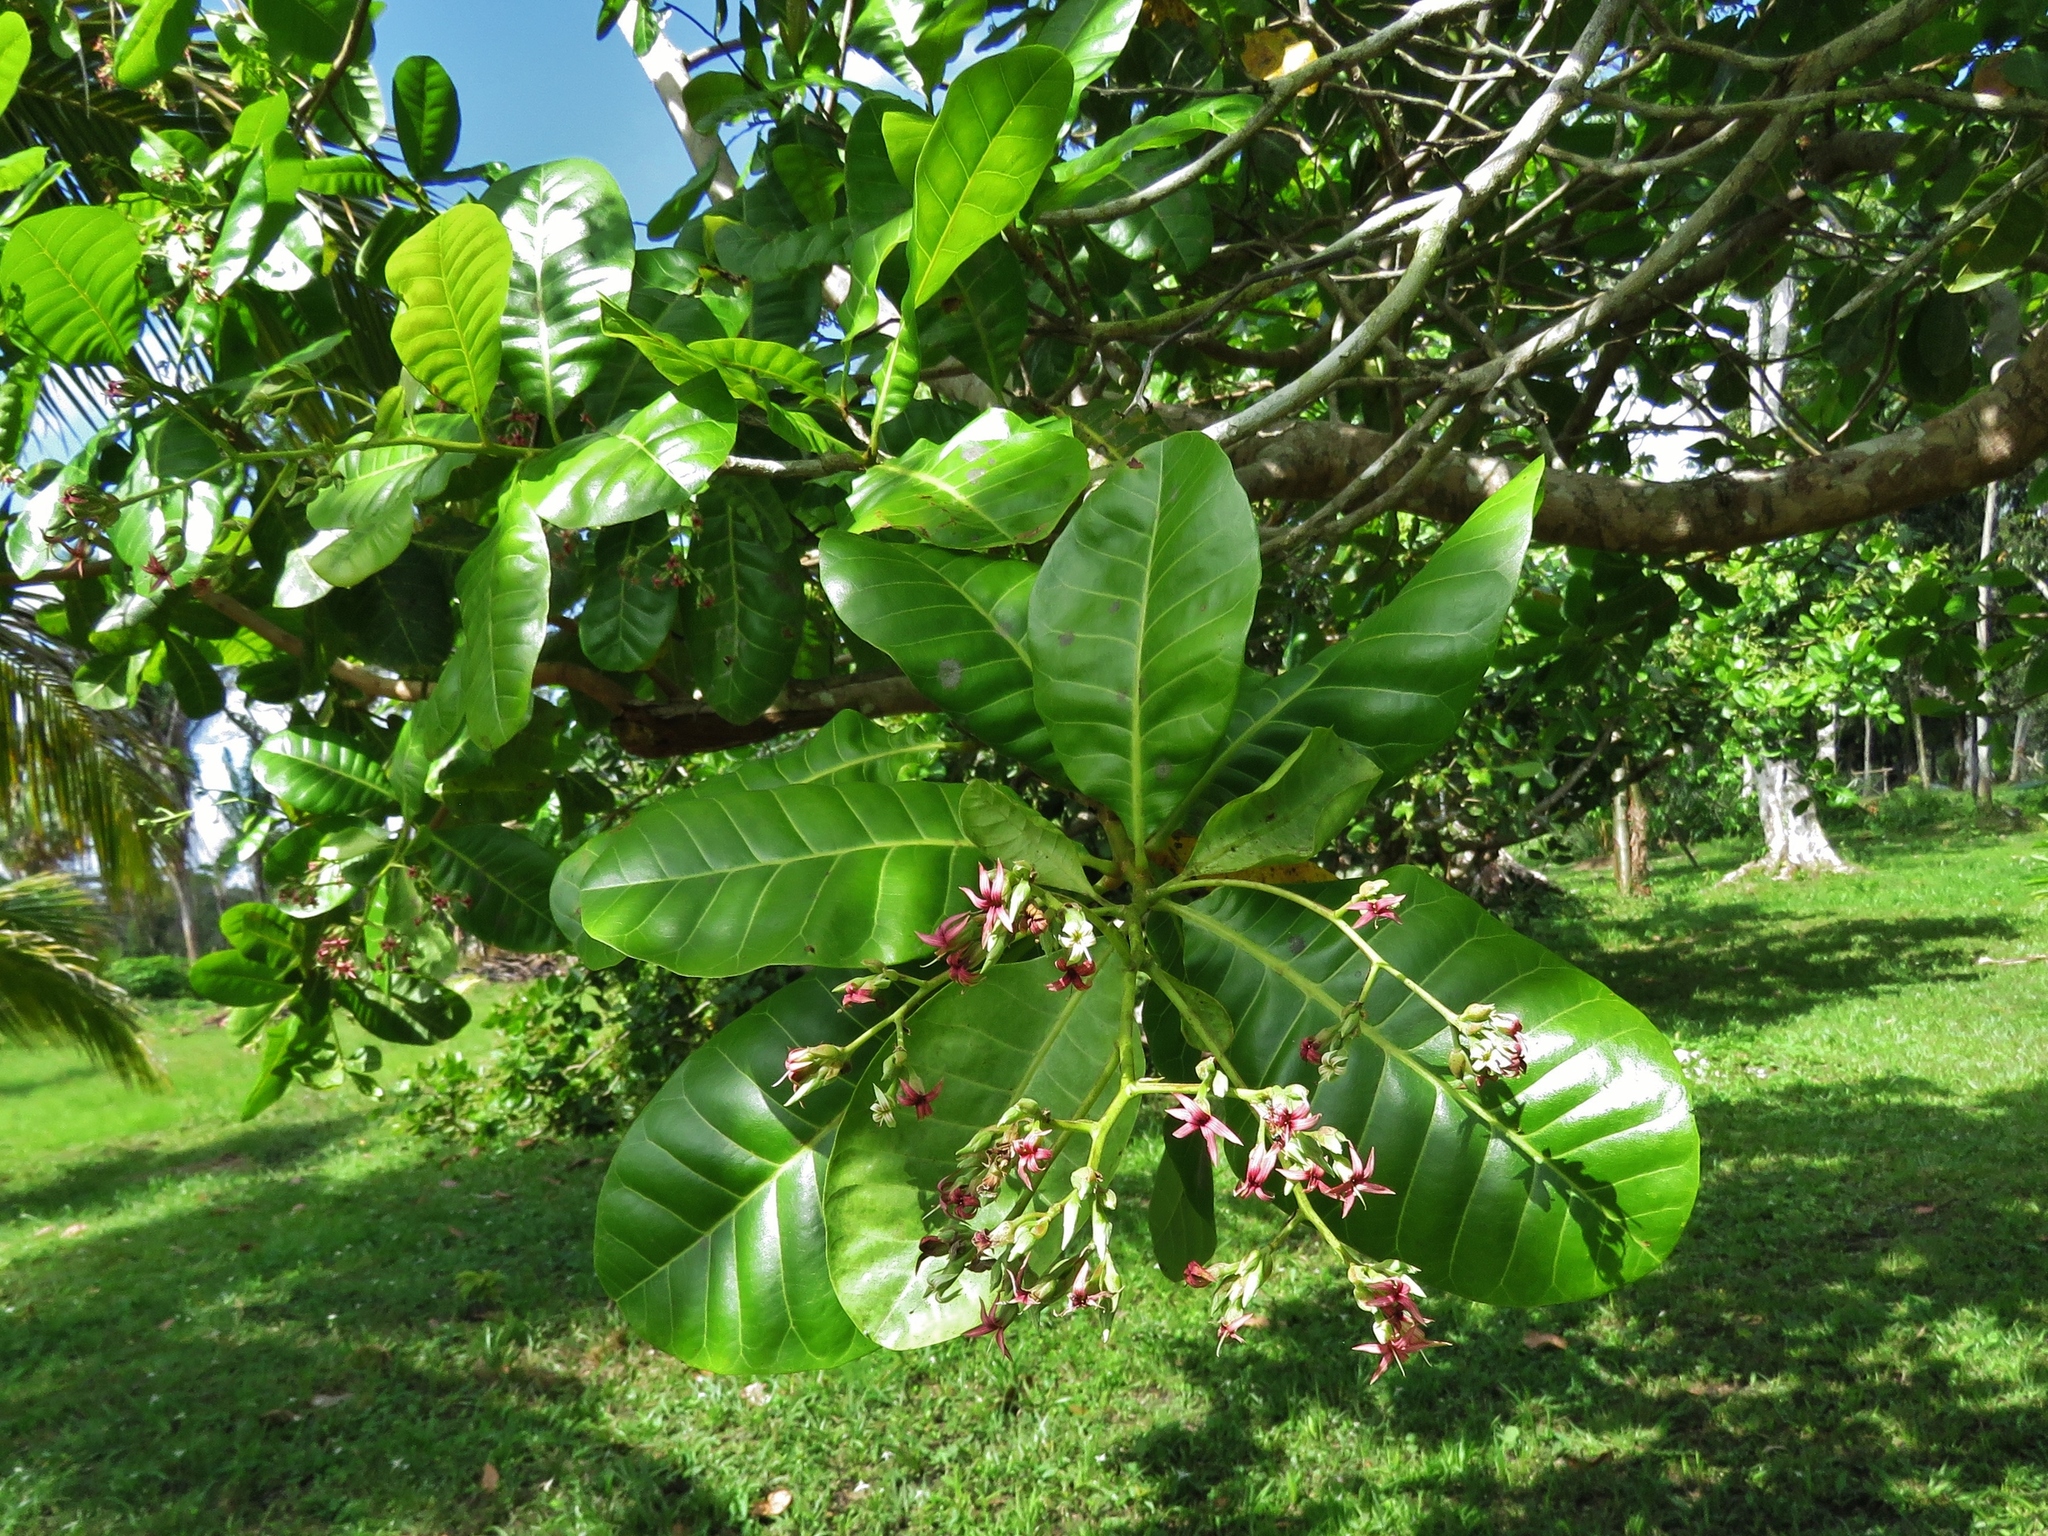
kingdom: Plantae
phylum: Tracheophyta
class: Magnoliopsida
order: Sapindales
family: Anacardiaceae
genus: Anacardium
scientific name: Anacardium occidentale
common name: Cashew
